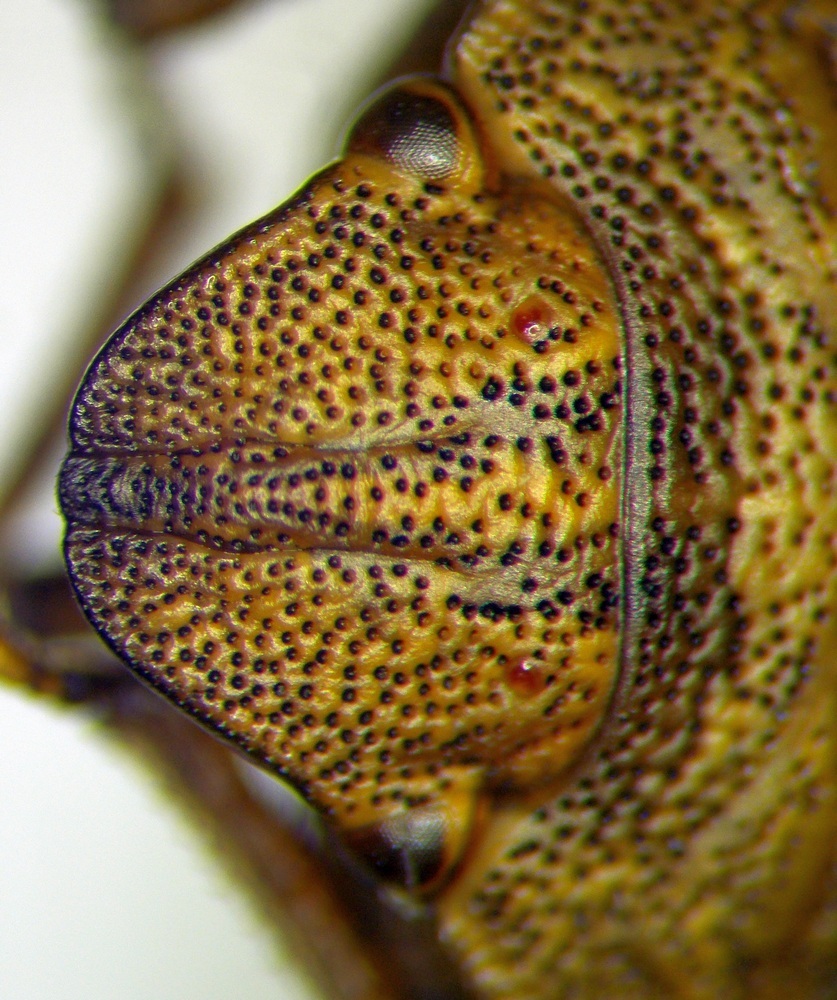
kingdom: Animalia
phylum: Arthropoda
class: Insecta
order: Hemiptera
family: Scutelleridae
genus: Eurygaster
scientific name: Eurygaster integriceps
